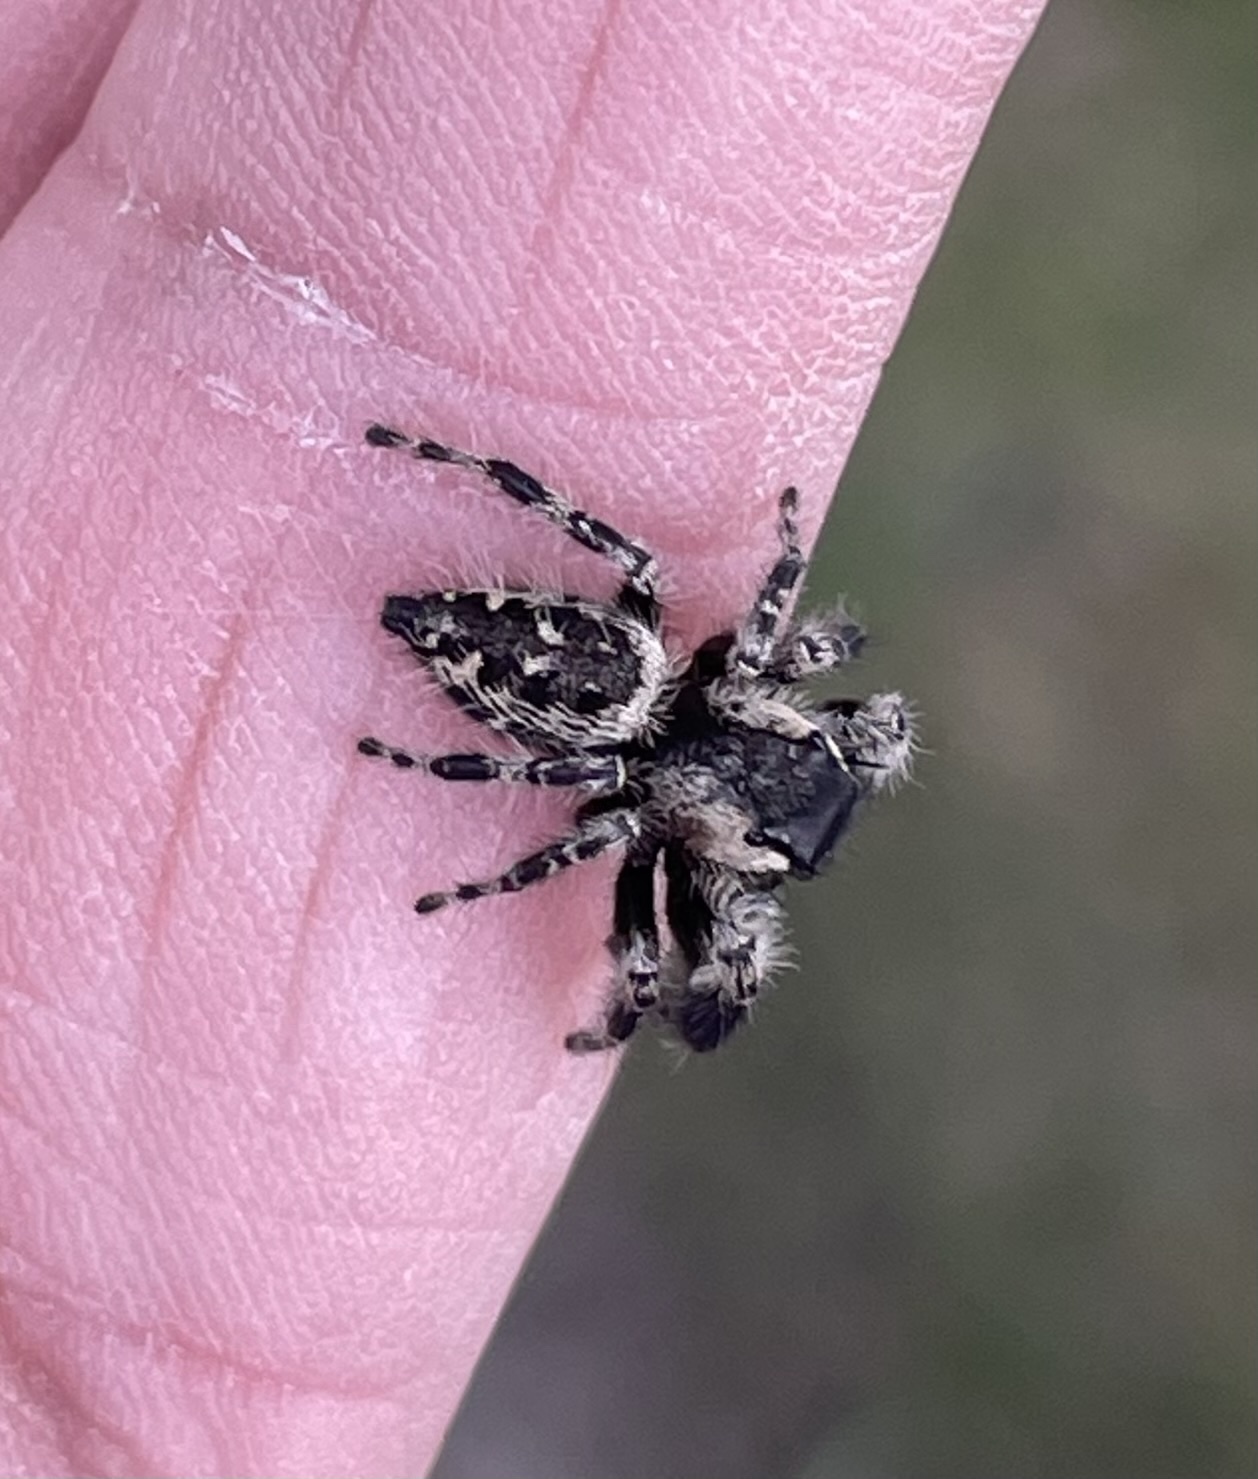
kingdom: Animalia
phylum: Arthropoda
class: Arachnida
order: Araneae
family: Salticidae
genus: Phidippus
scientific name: Phidippus otiosus
